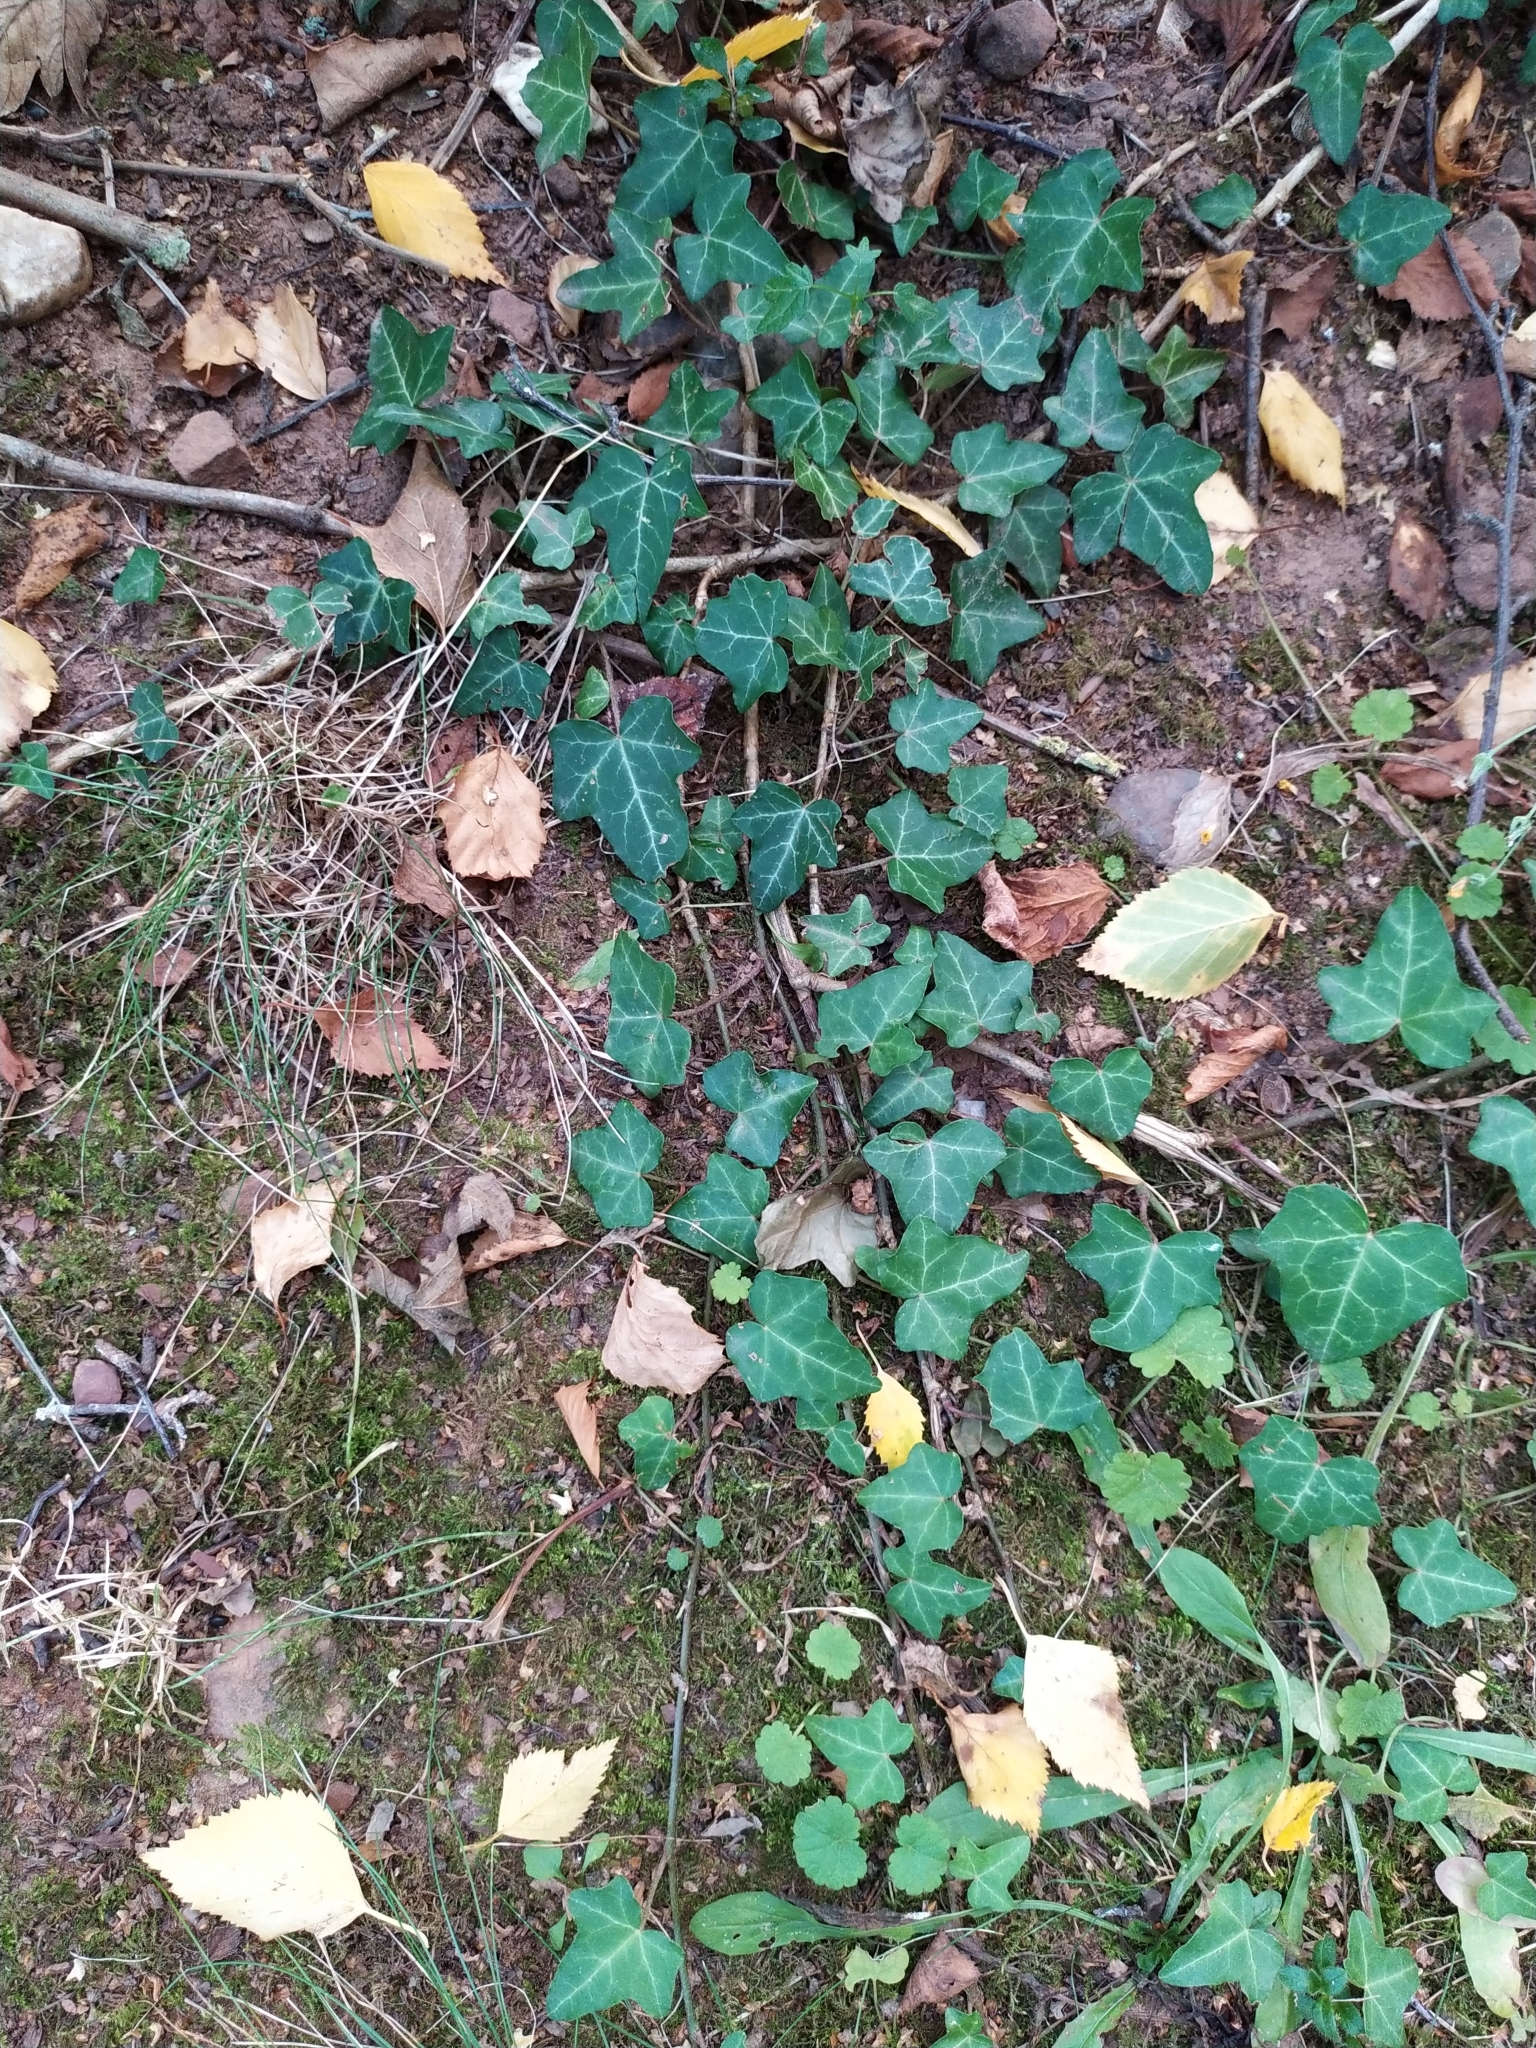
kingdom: Plantae
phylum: Tracheophyta
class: Magnoliopsida
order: Apiales
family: Araliaceae
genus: Hedera
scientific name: Hedera helix
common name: Ivy
